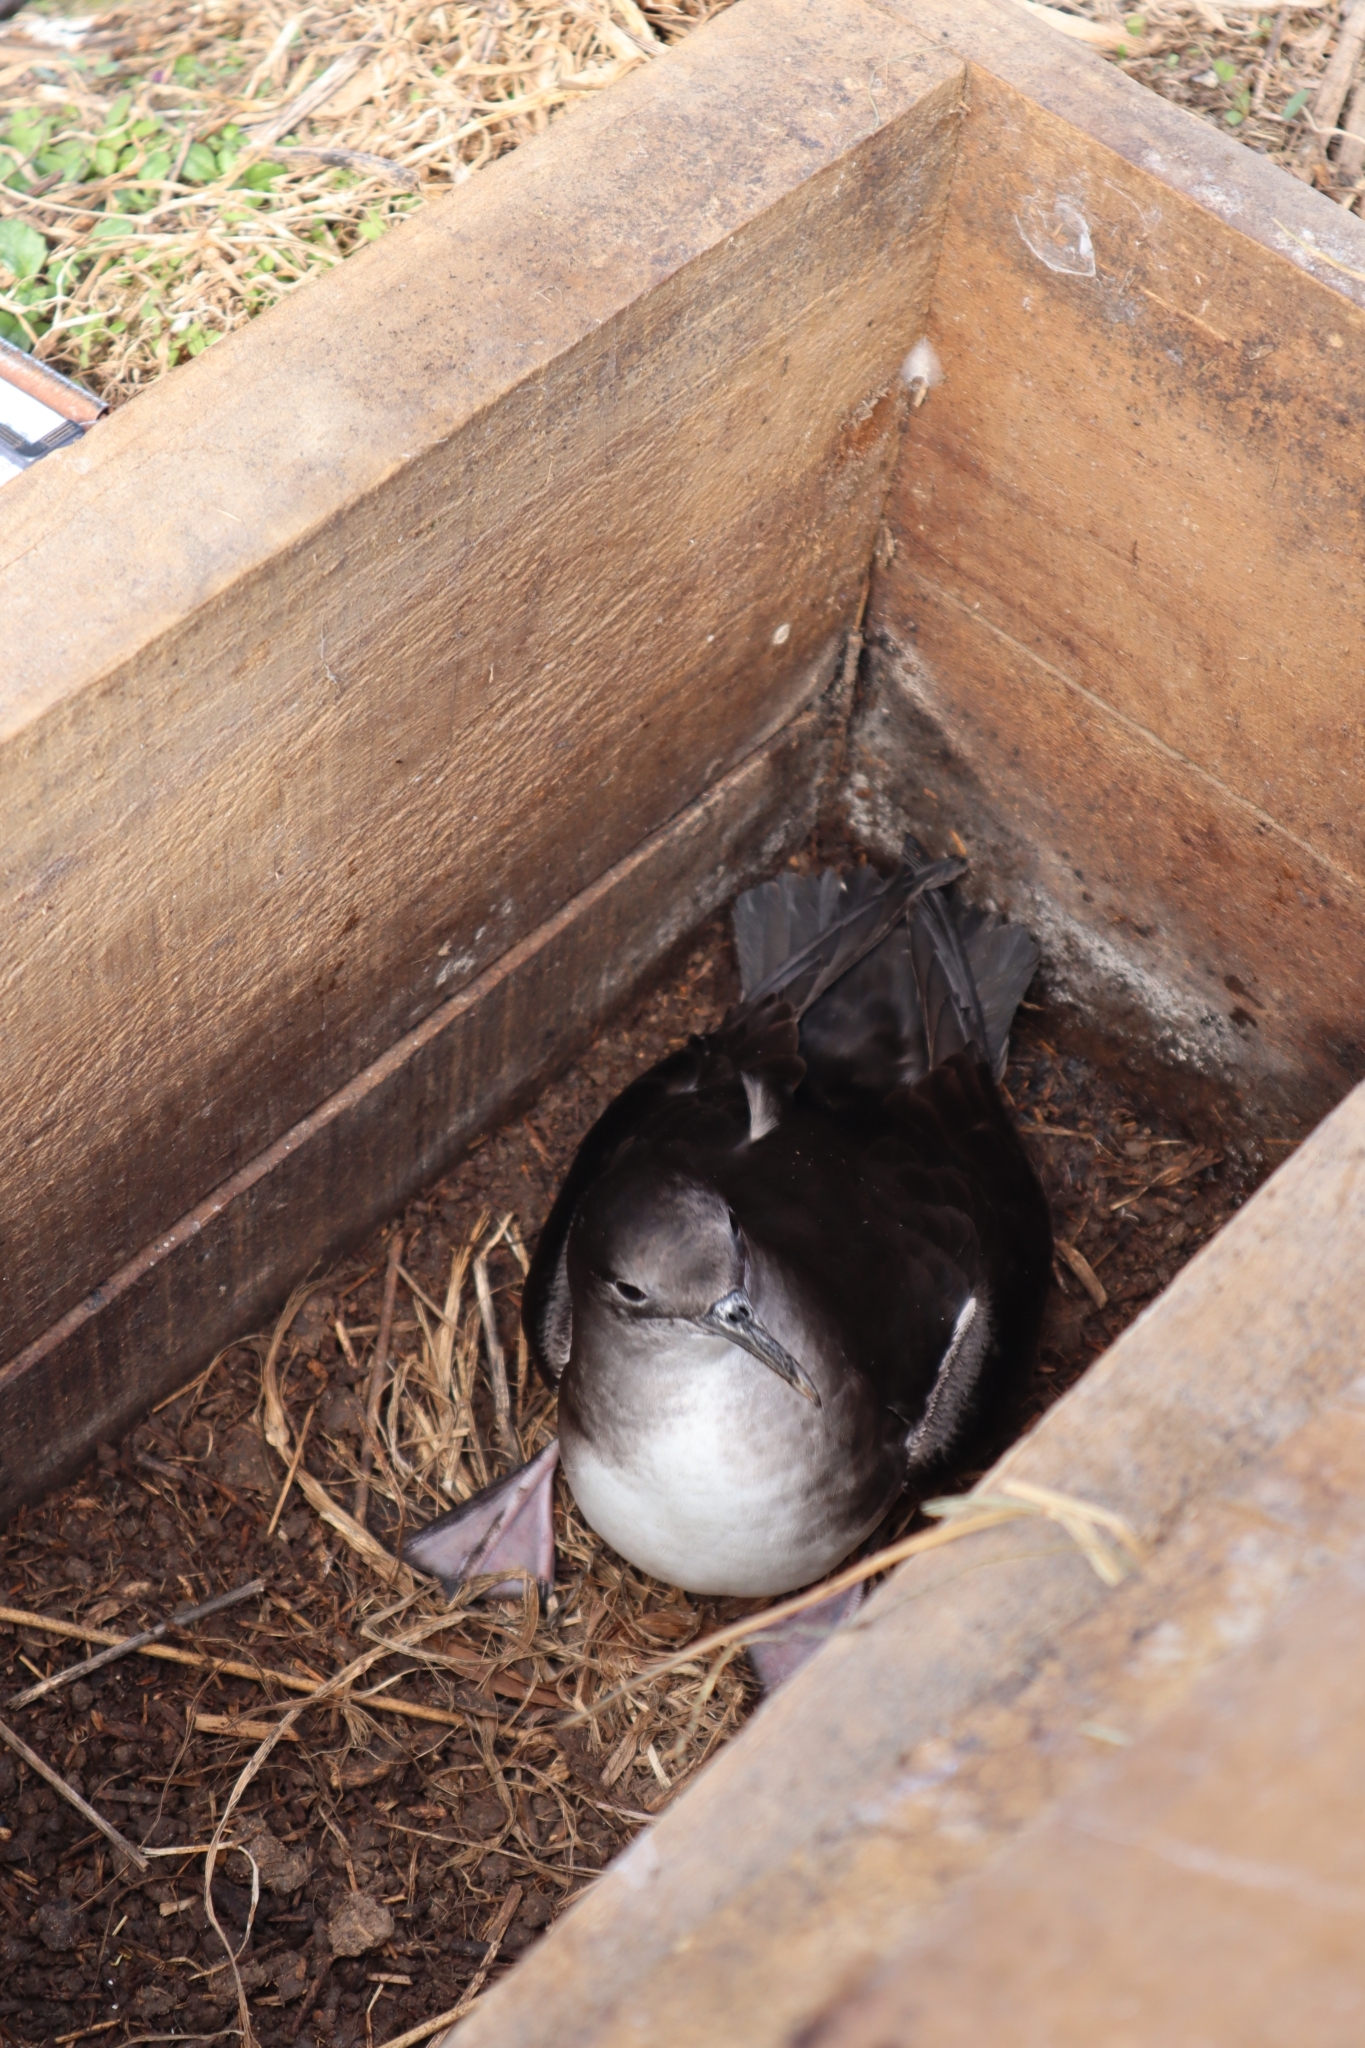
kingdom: Animalia
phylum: Chordata
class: Aves
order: Procellariiformes
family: Procellariidae
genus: Puffinus
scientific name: Puffinus huttoni
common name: Hutton's shearwater
